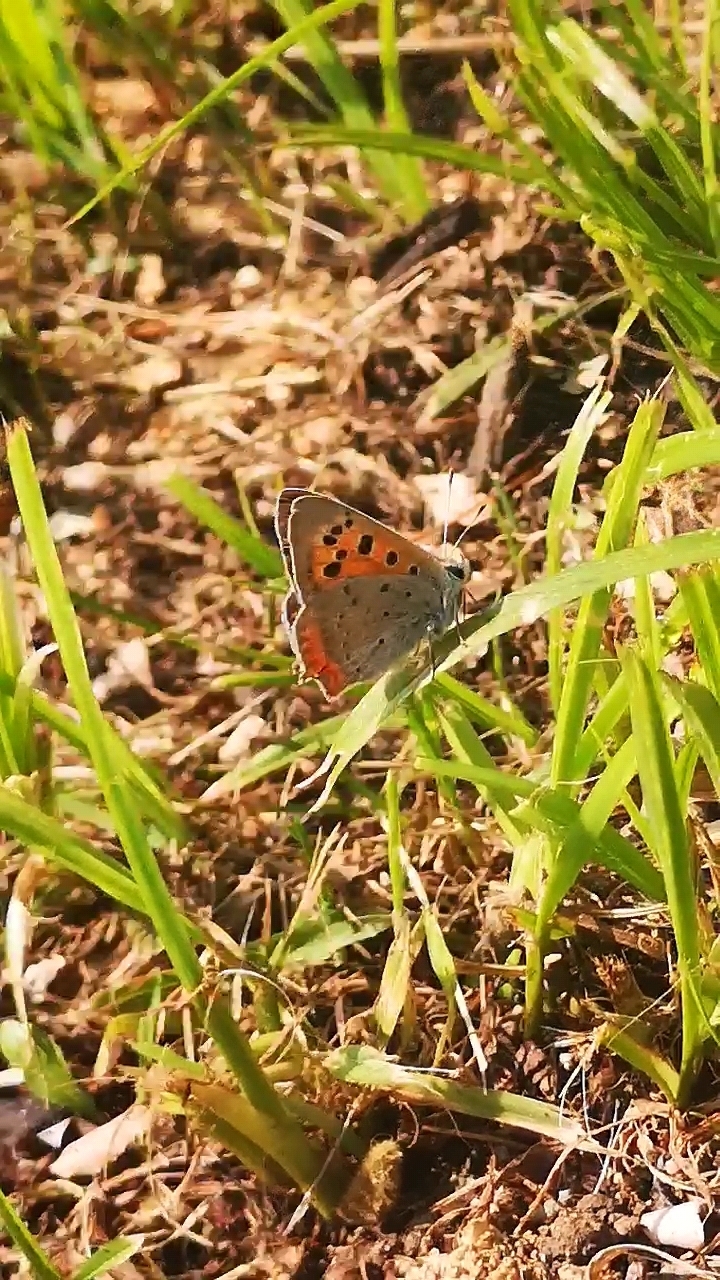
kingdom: Animalia
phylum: Arthropoda
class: Insecta
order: Lepidoptera
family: Lycaenidae
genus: Lycaena
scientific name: Lycaena phlaeas
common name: Small copper
